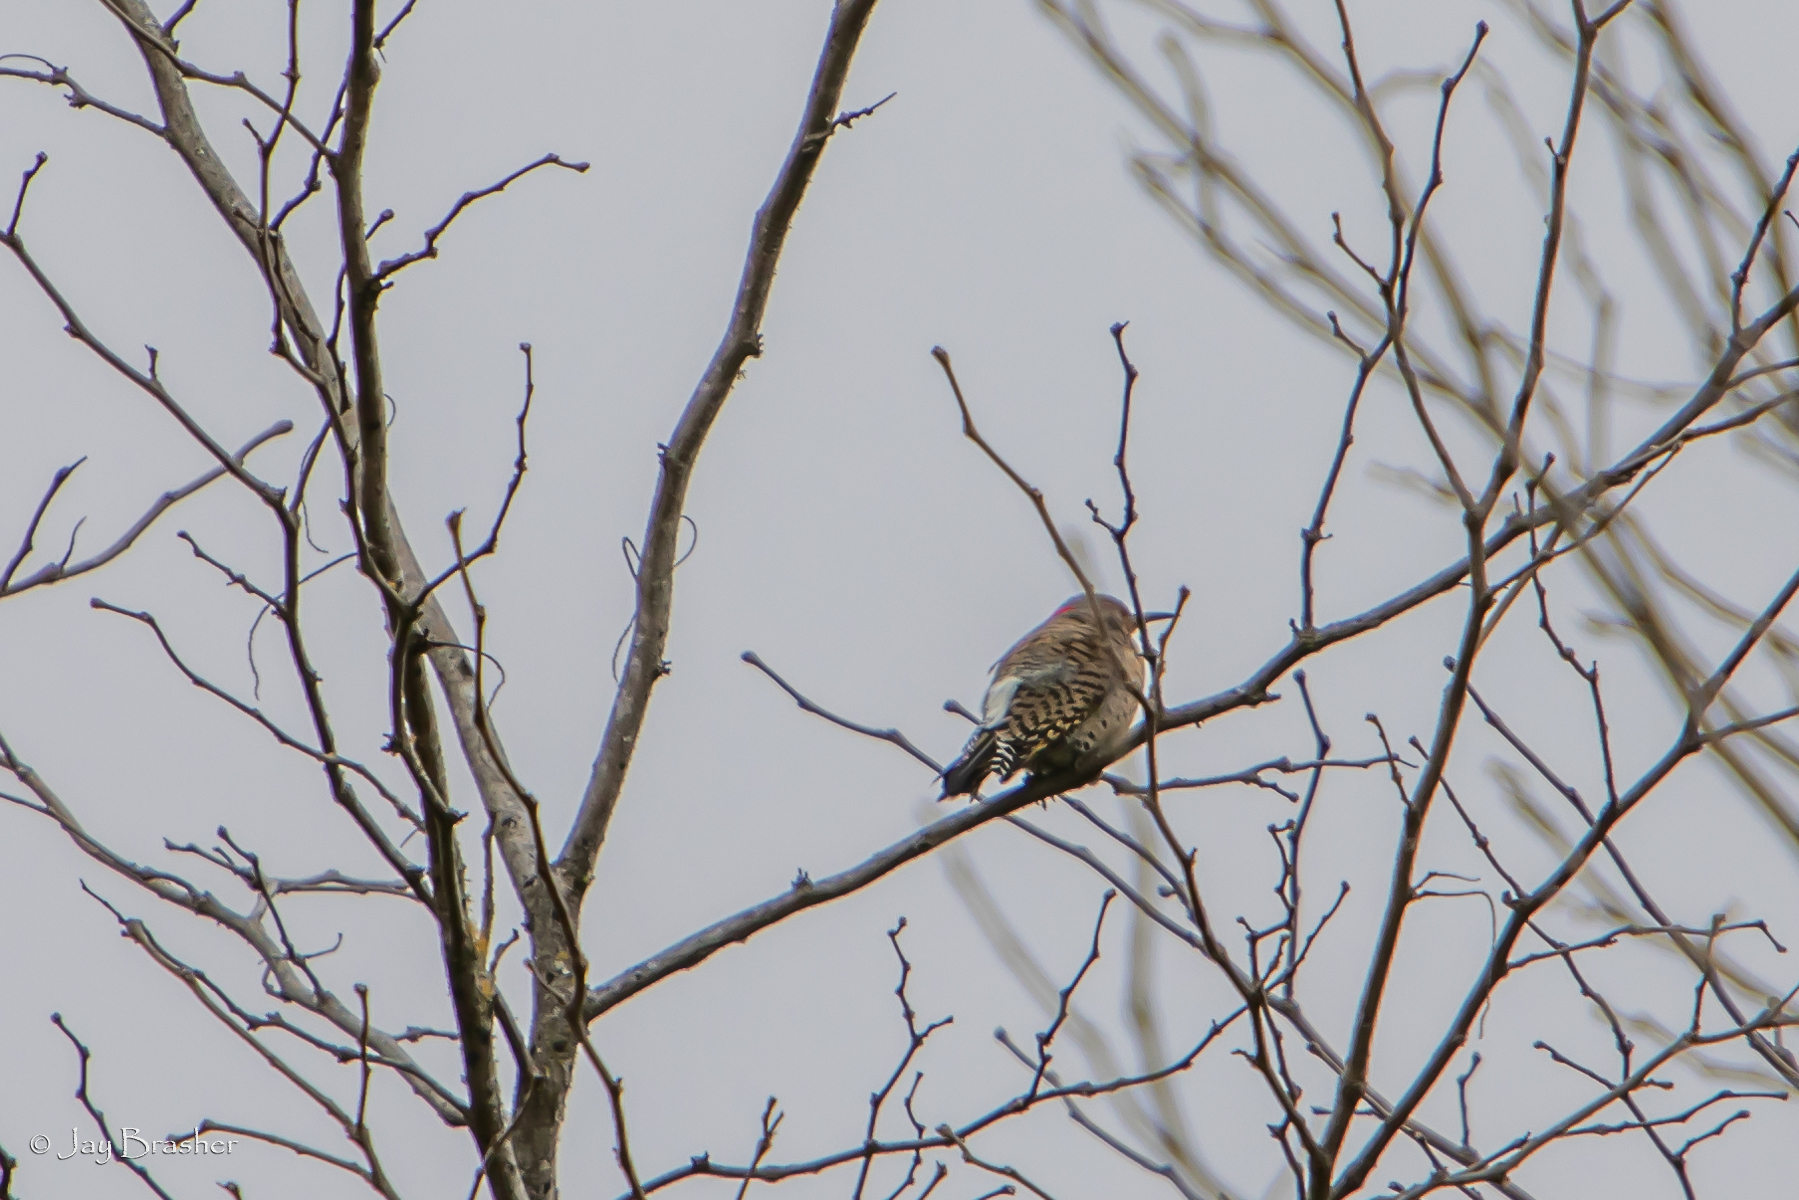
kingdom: Animalia
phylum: Chordata
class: Aves
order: Piciformes
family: Picidae
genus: Colaptes
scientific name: Colaptes auratus
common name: Northern flicker
